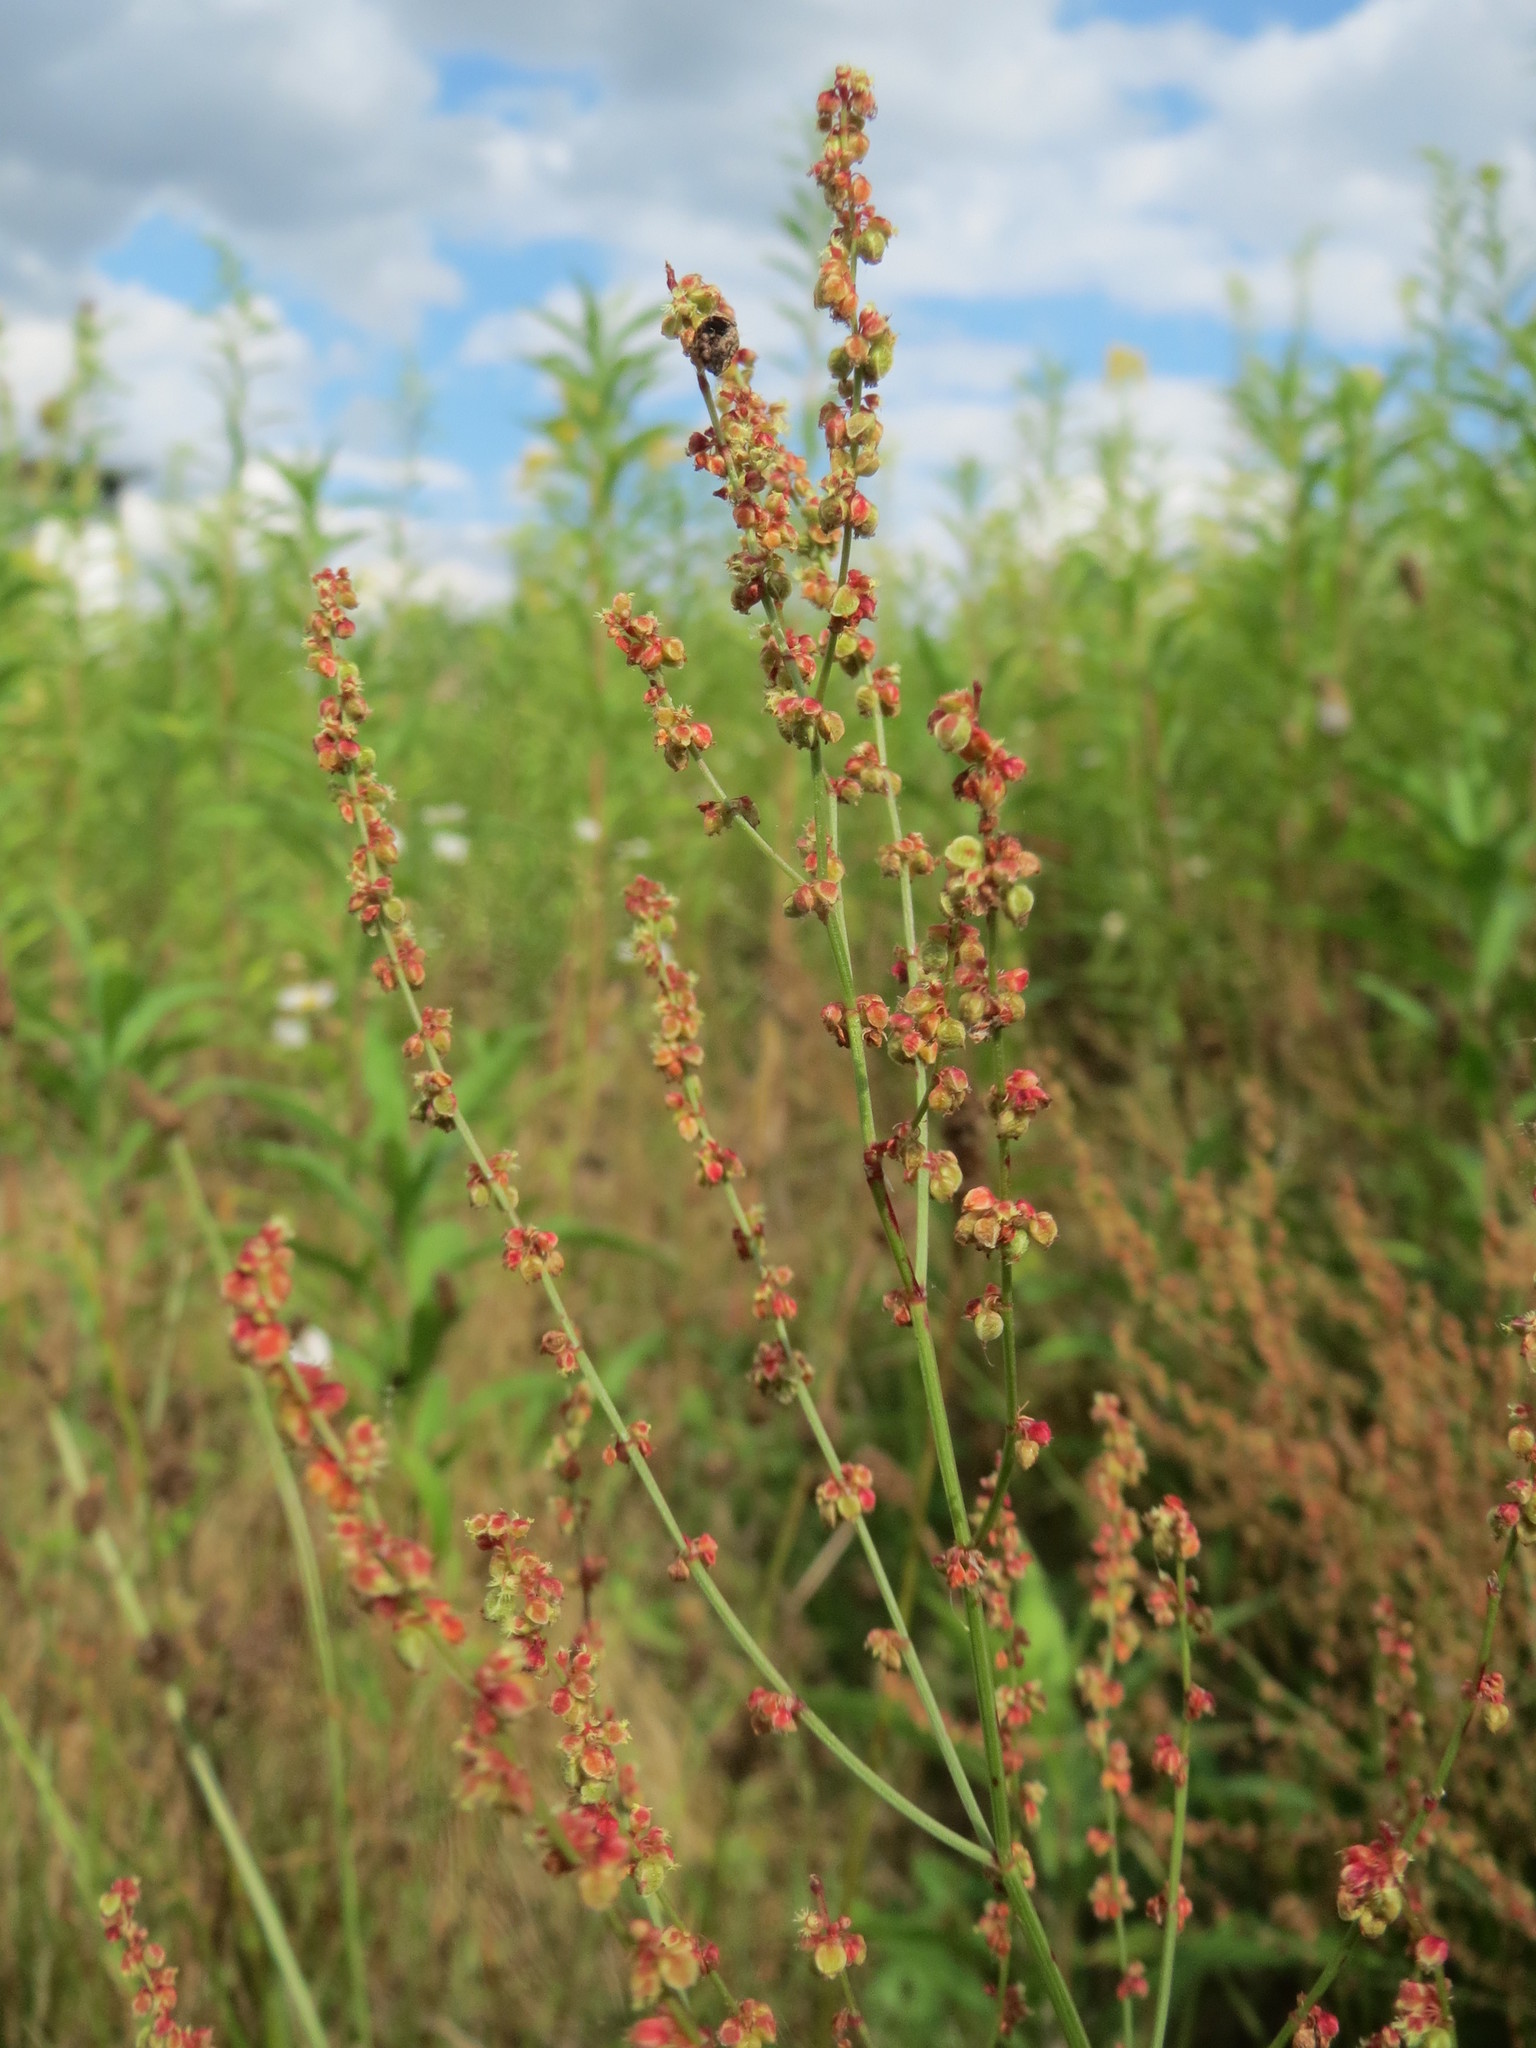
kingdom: Plantae
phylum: Tracheophyta
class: Magnoliopsida
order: Caryophyllales
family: Polygonaceae
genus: Rumex
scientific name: Rumex acetosella
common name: Common sheep sorrel
